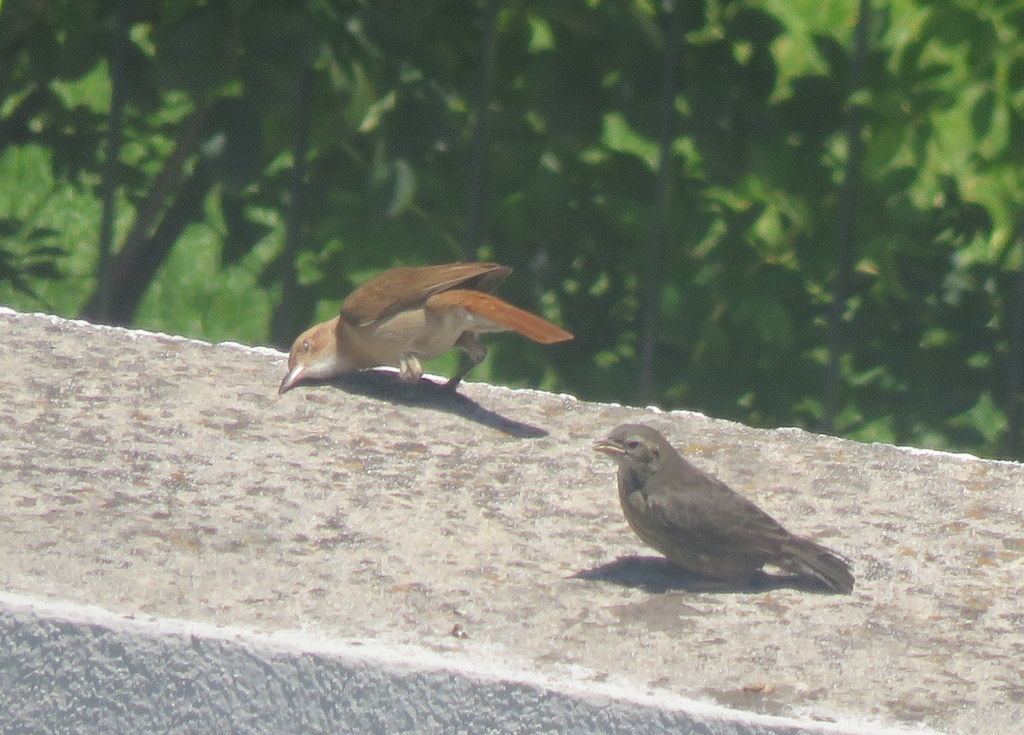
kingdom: Animalia
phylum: Chordata
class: Aves
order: Passeriformes
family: Icteridae
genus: Molothrus
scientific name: Molothrus bonariensis
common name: Shiny cowbird
